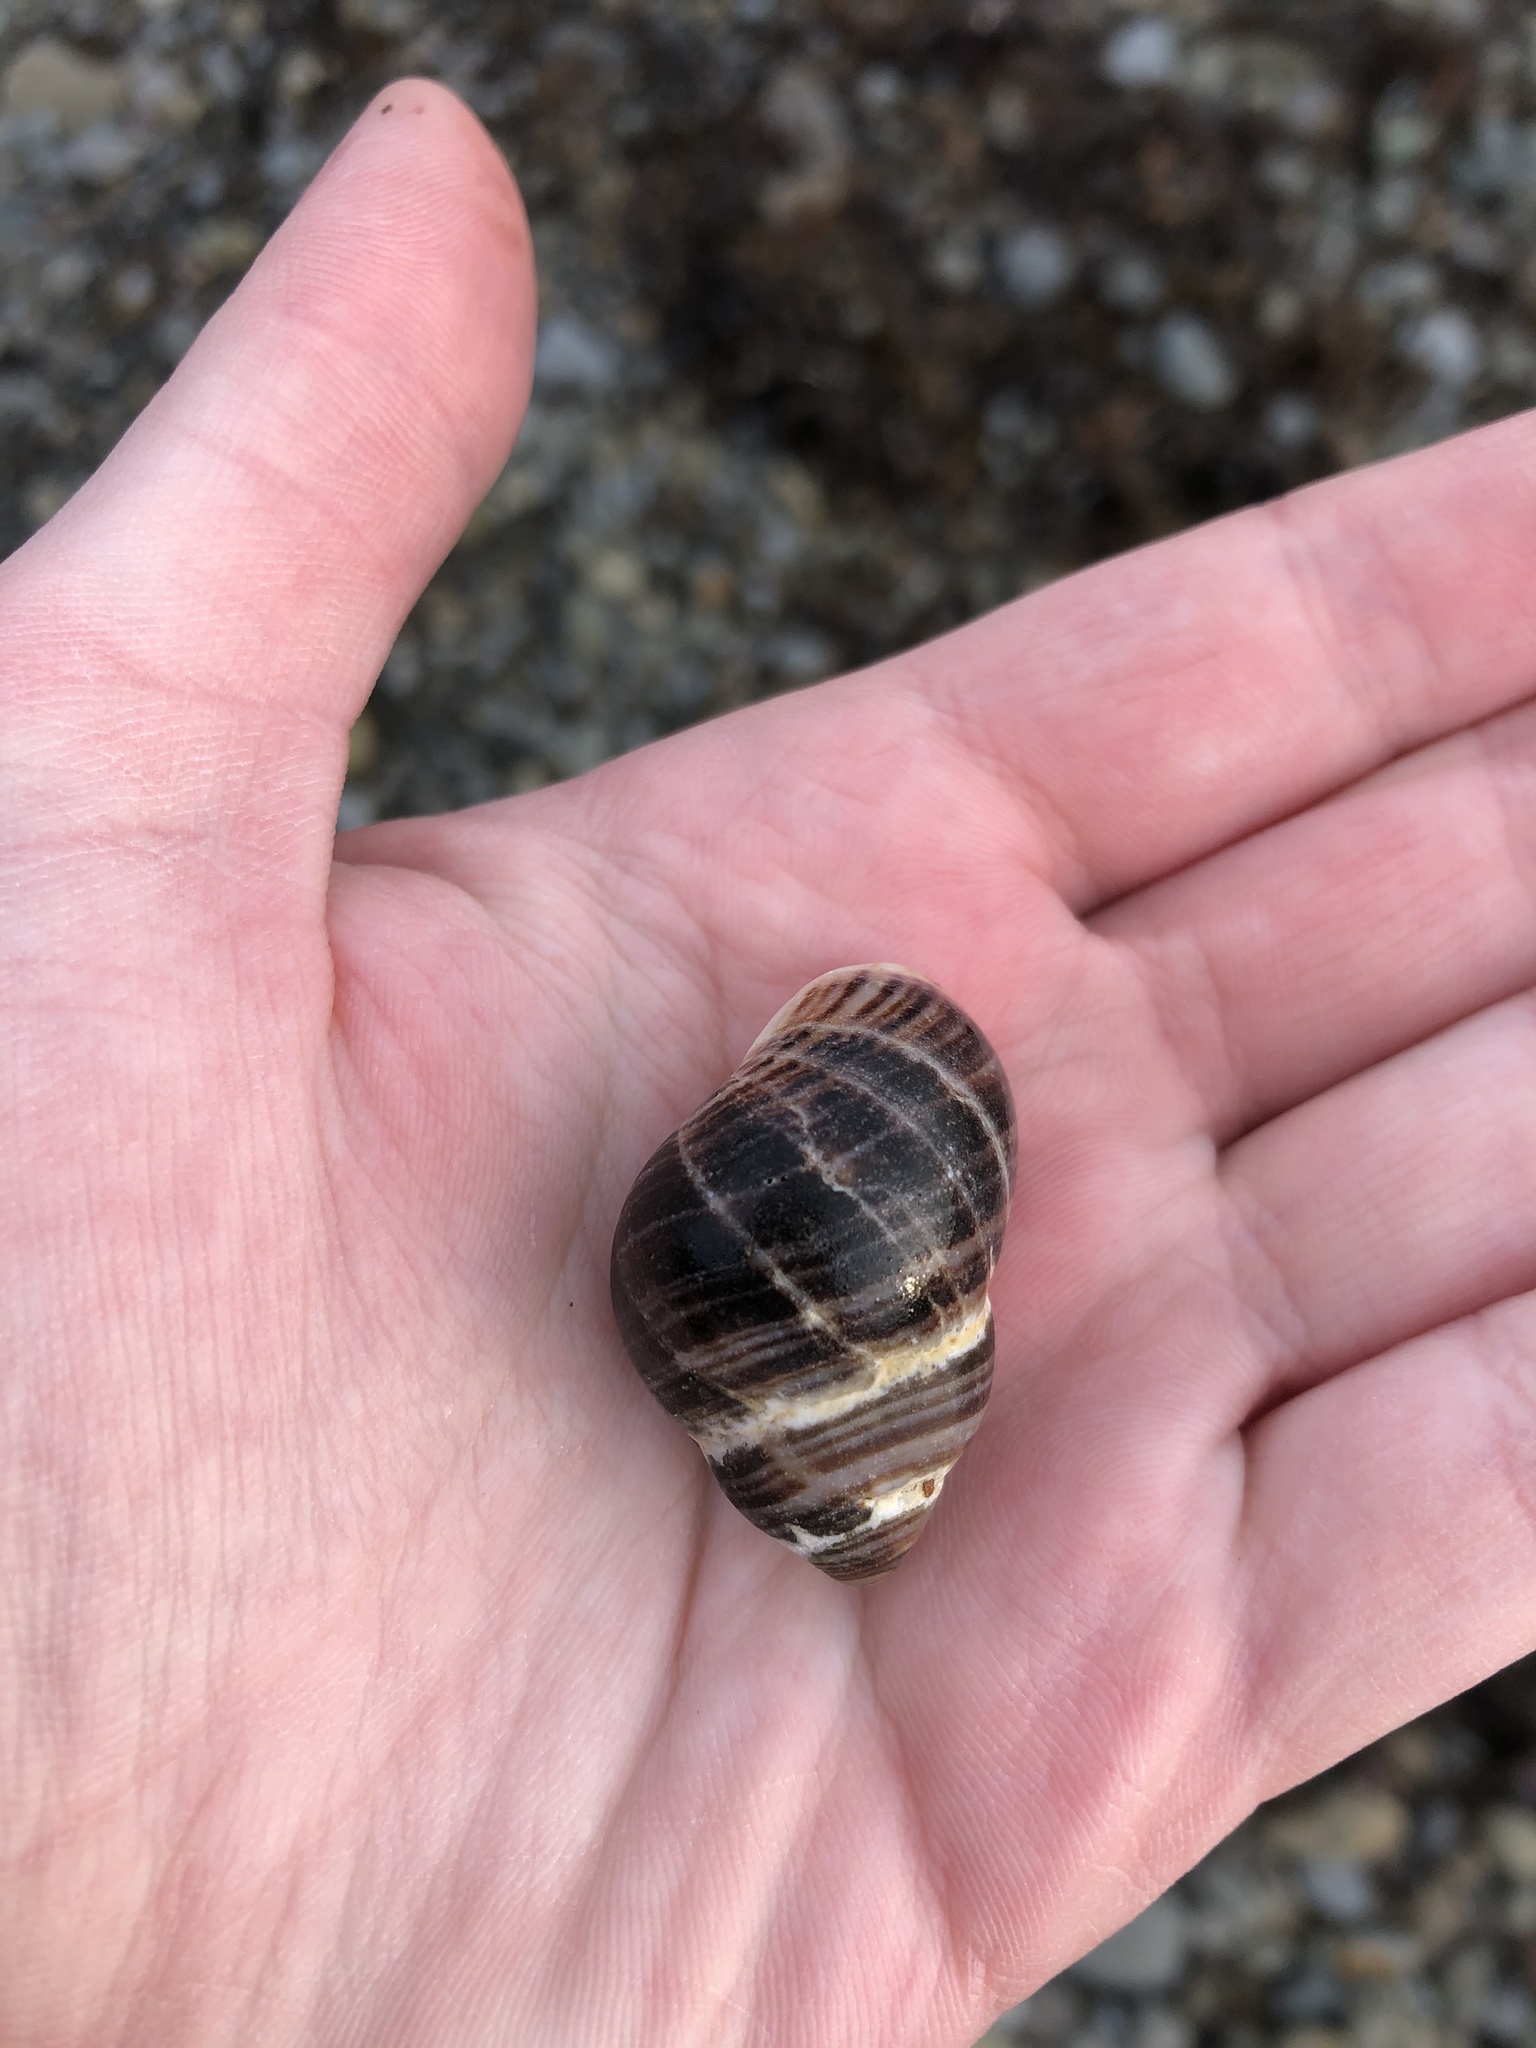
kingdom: Animalia
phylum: Mollusca
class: Gastropoda
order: Littorinimorpha
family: Littorinidae
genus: Littorina
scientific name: Littorina littorea
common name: Common periwinkle
